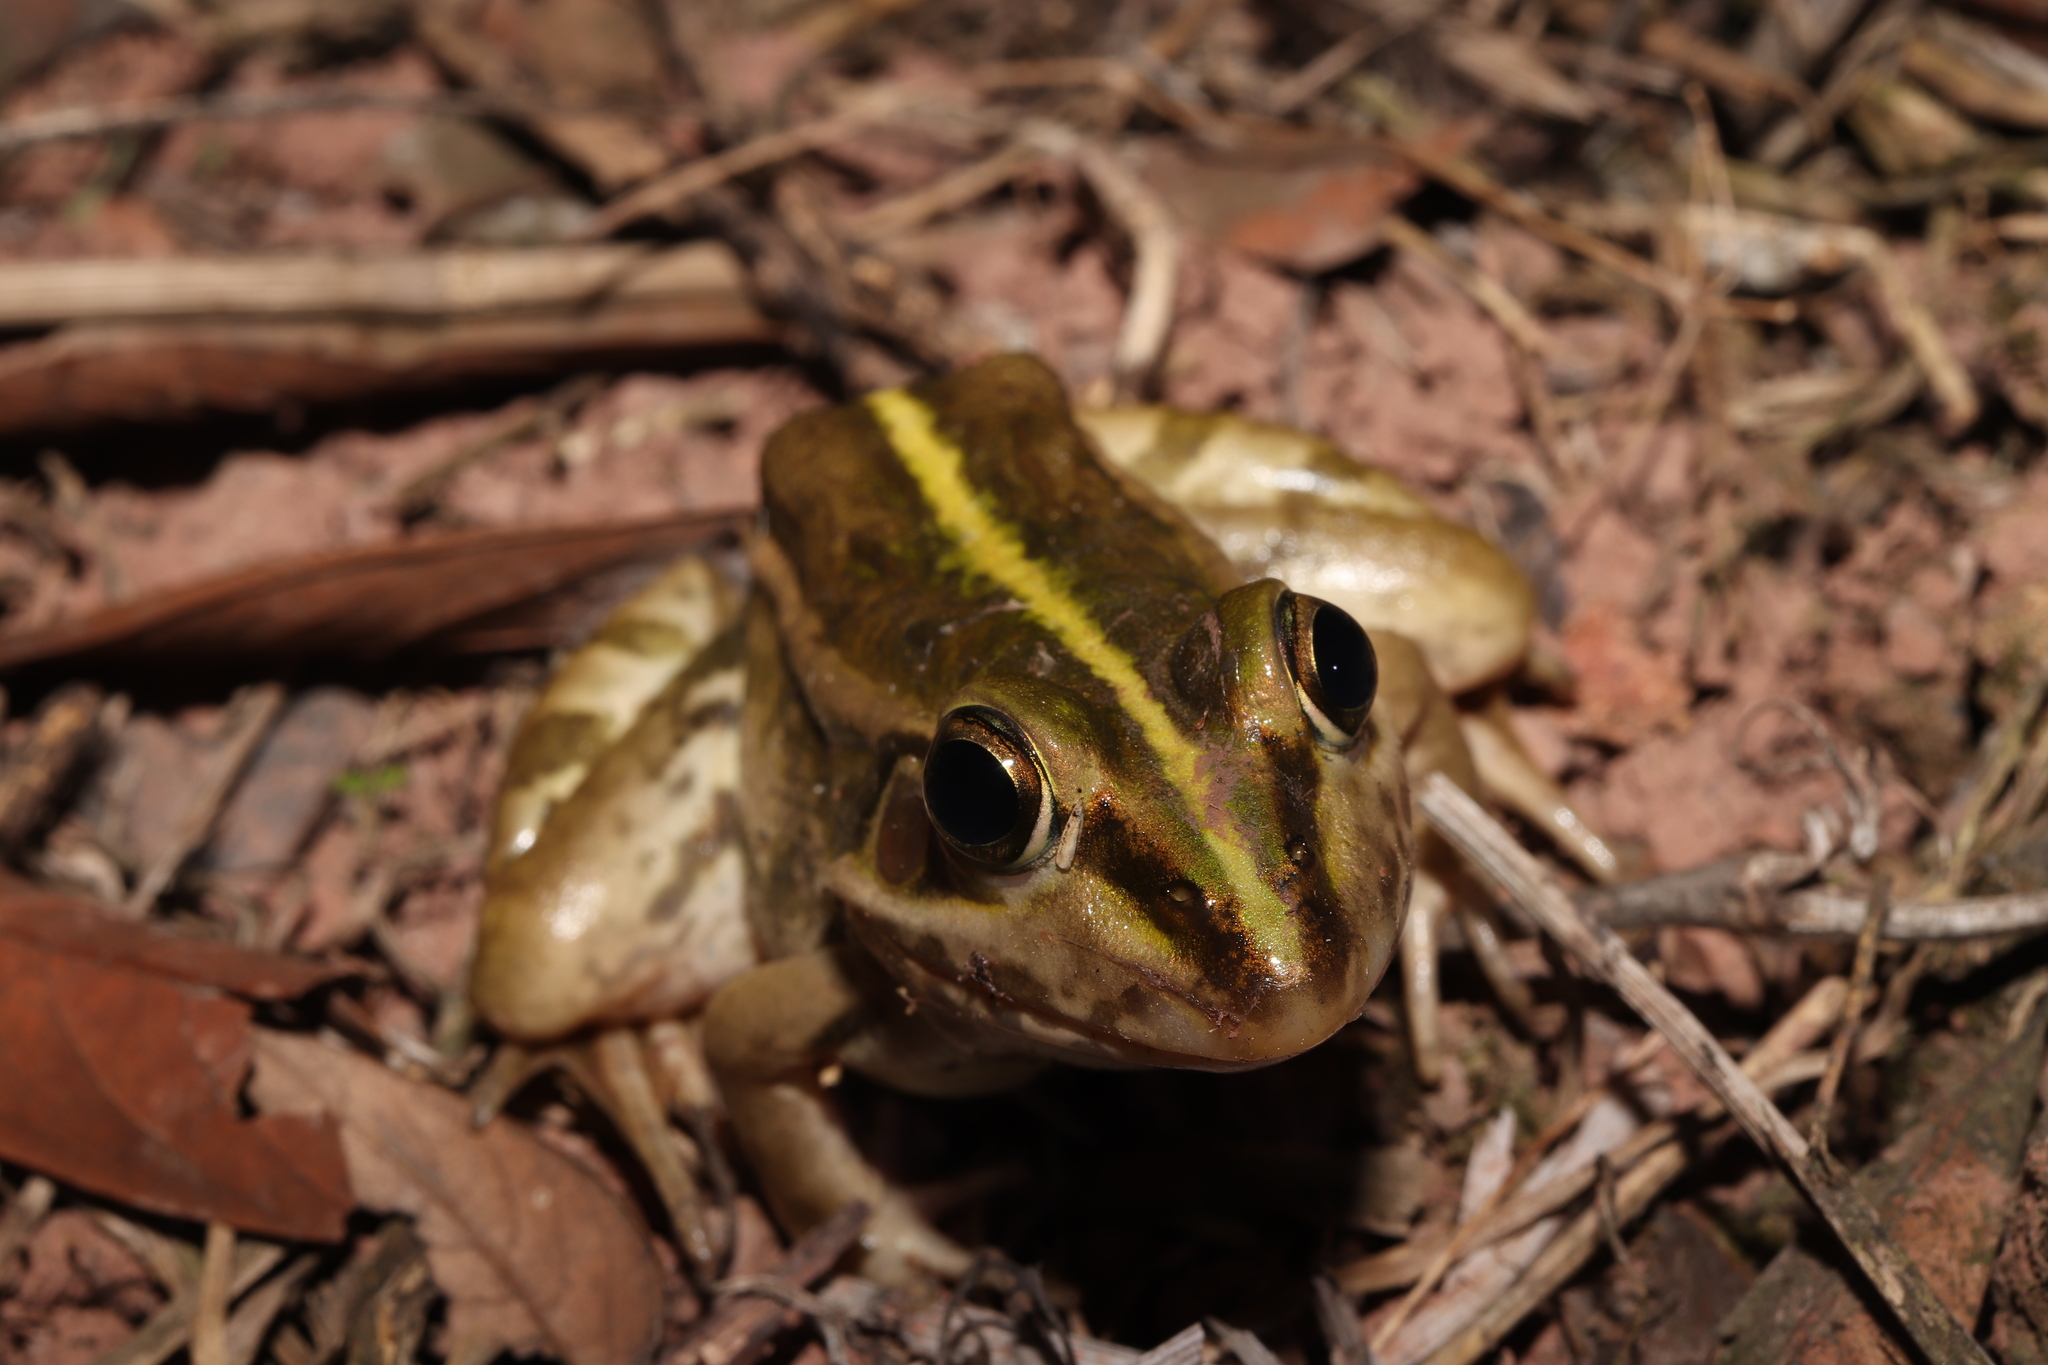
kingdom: Animalia
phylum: Chordata
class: Amphibia
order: Anura
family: Ranidae
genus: Pelophylax
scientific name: Pelophylax nigromaculatus
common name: Black-spotted pond frog
